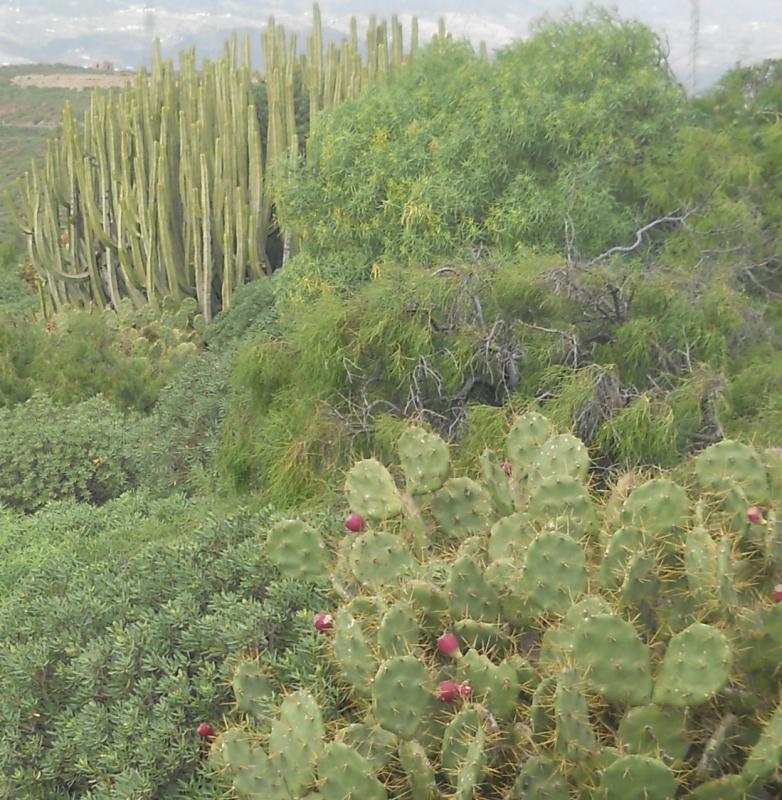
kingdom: Plantae
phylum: Tracheophyta
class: Magnoliopsida
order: Malpighiales
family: Euphorbiaceae
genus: Euphorbia
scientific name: Euphorbia canariensis
